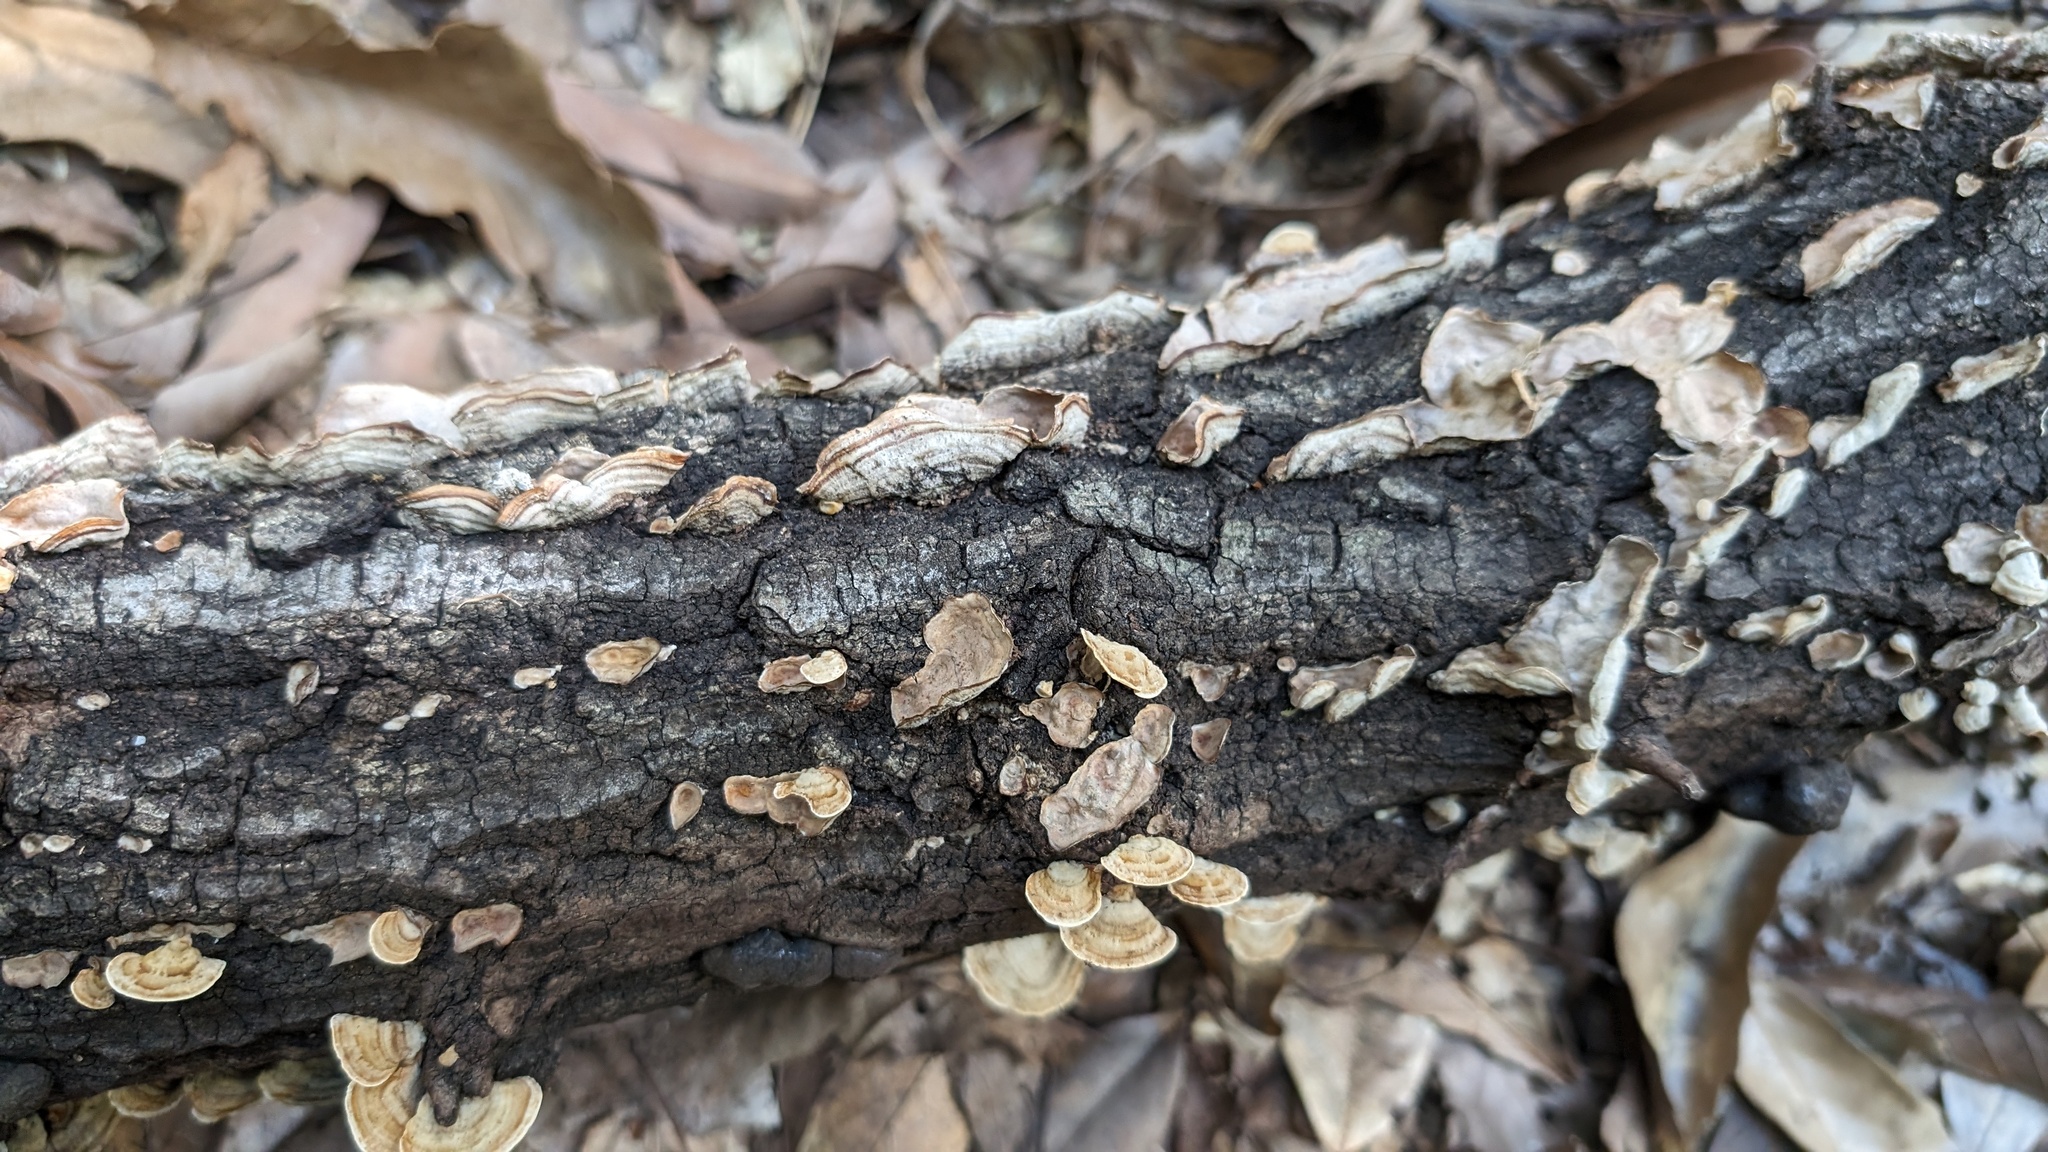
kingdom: Fungi
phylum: Basidiomycota
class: Agaricomycetes
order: Russulales
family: Stereaceae
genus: Stereum
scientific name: Stereum ostrea
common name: False turkeytail
